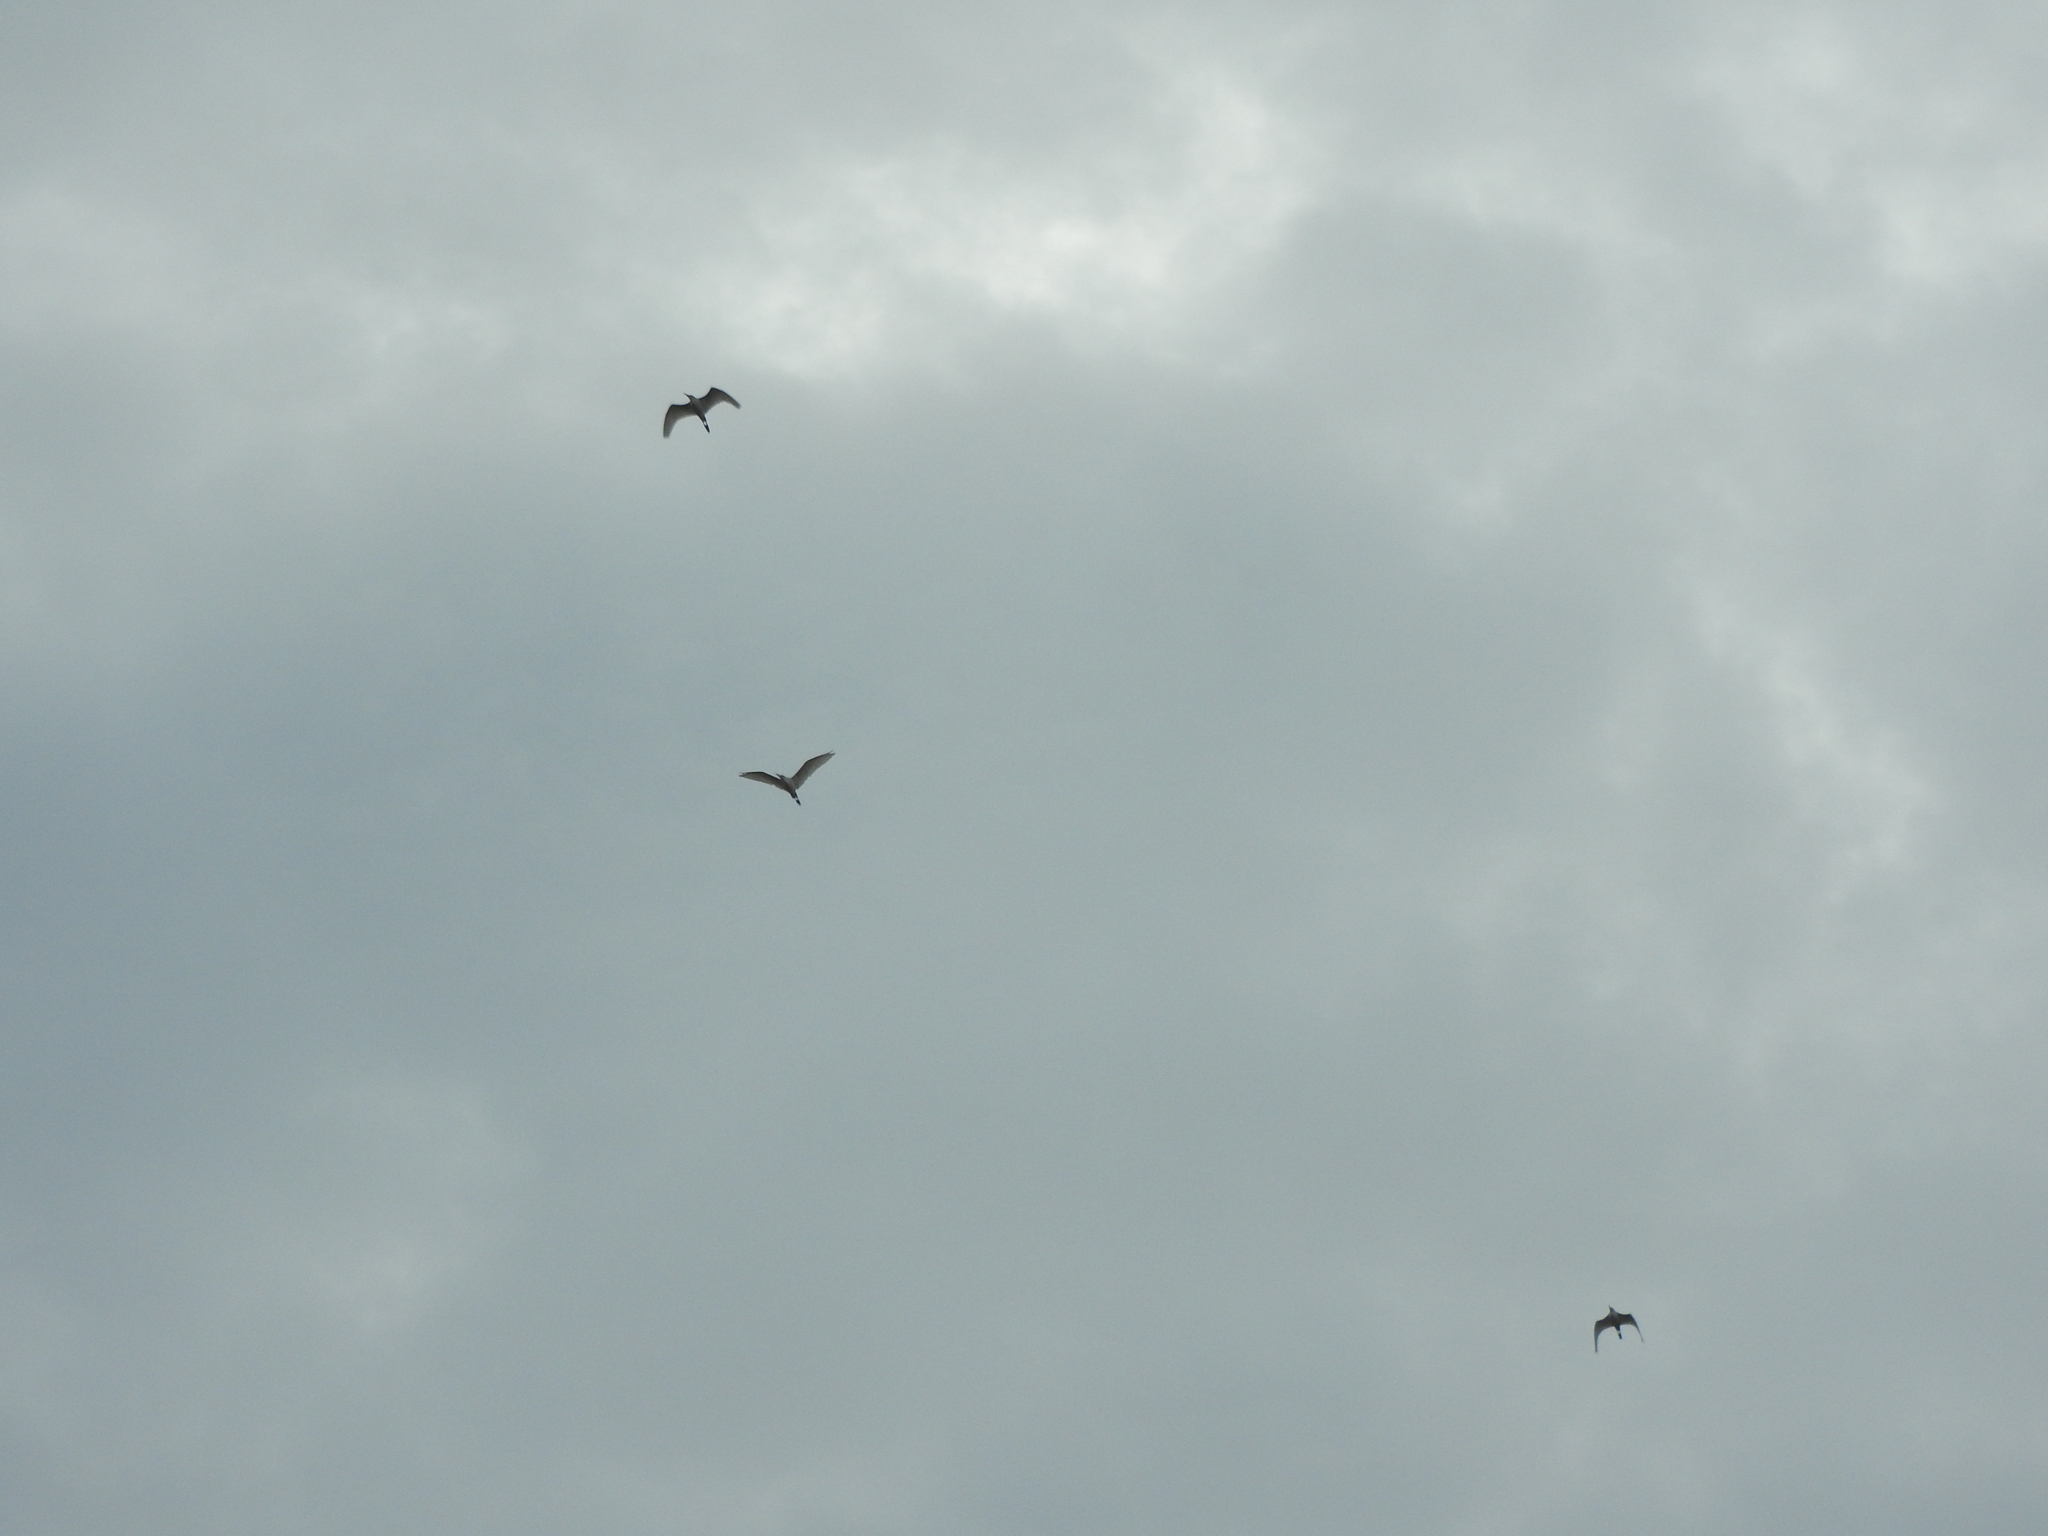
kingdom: Animalia
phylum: Chordata
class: Aves
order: Pelecaniformes
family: Ardeidae
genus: Egretta
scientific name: Egretta
